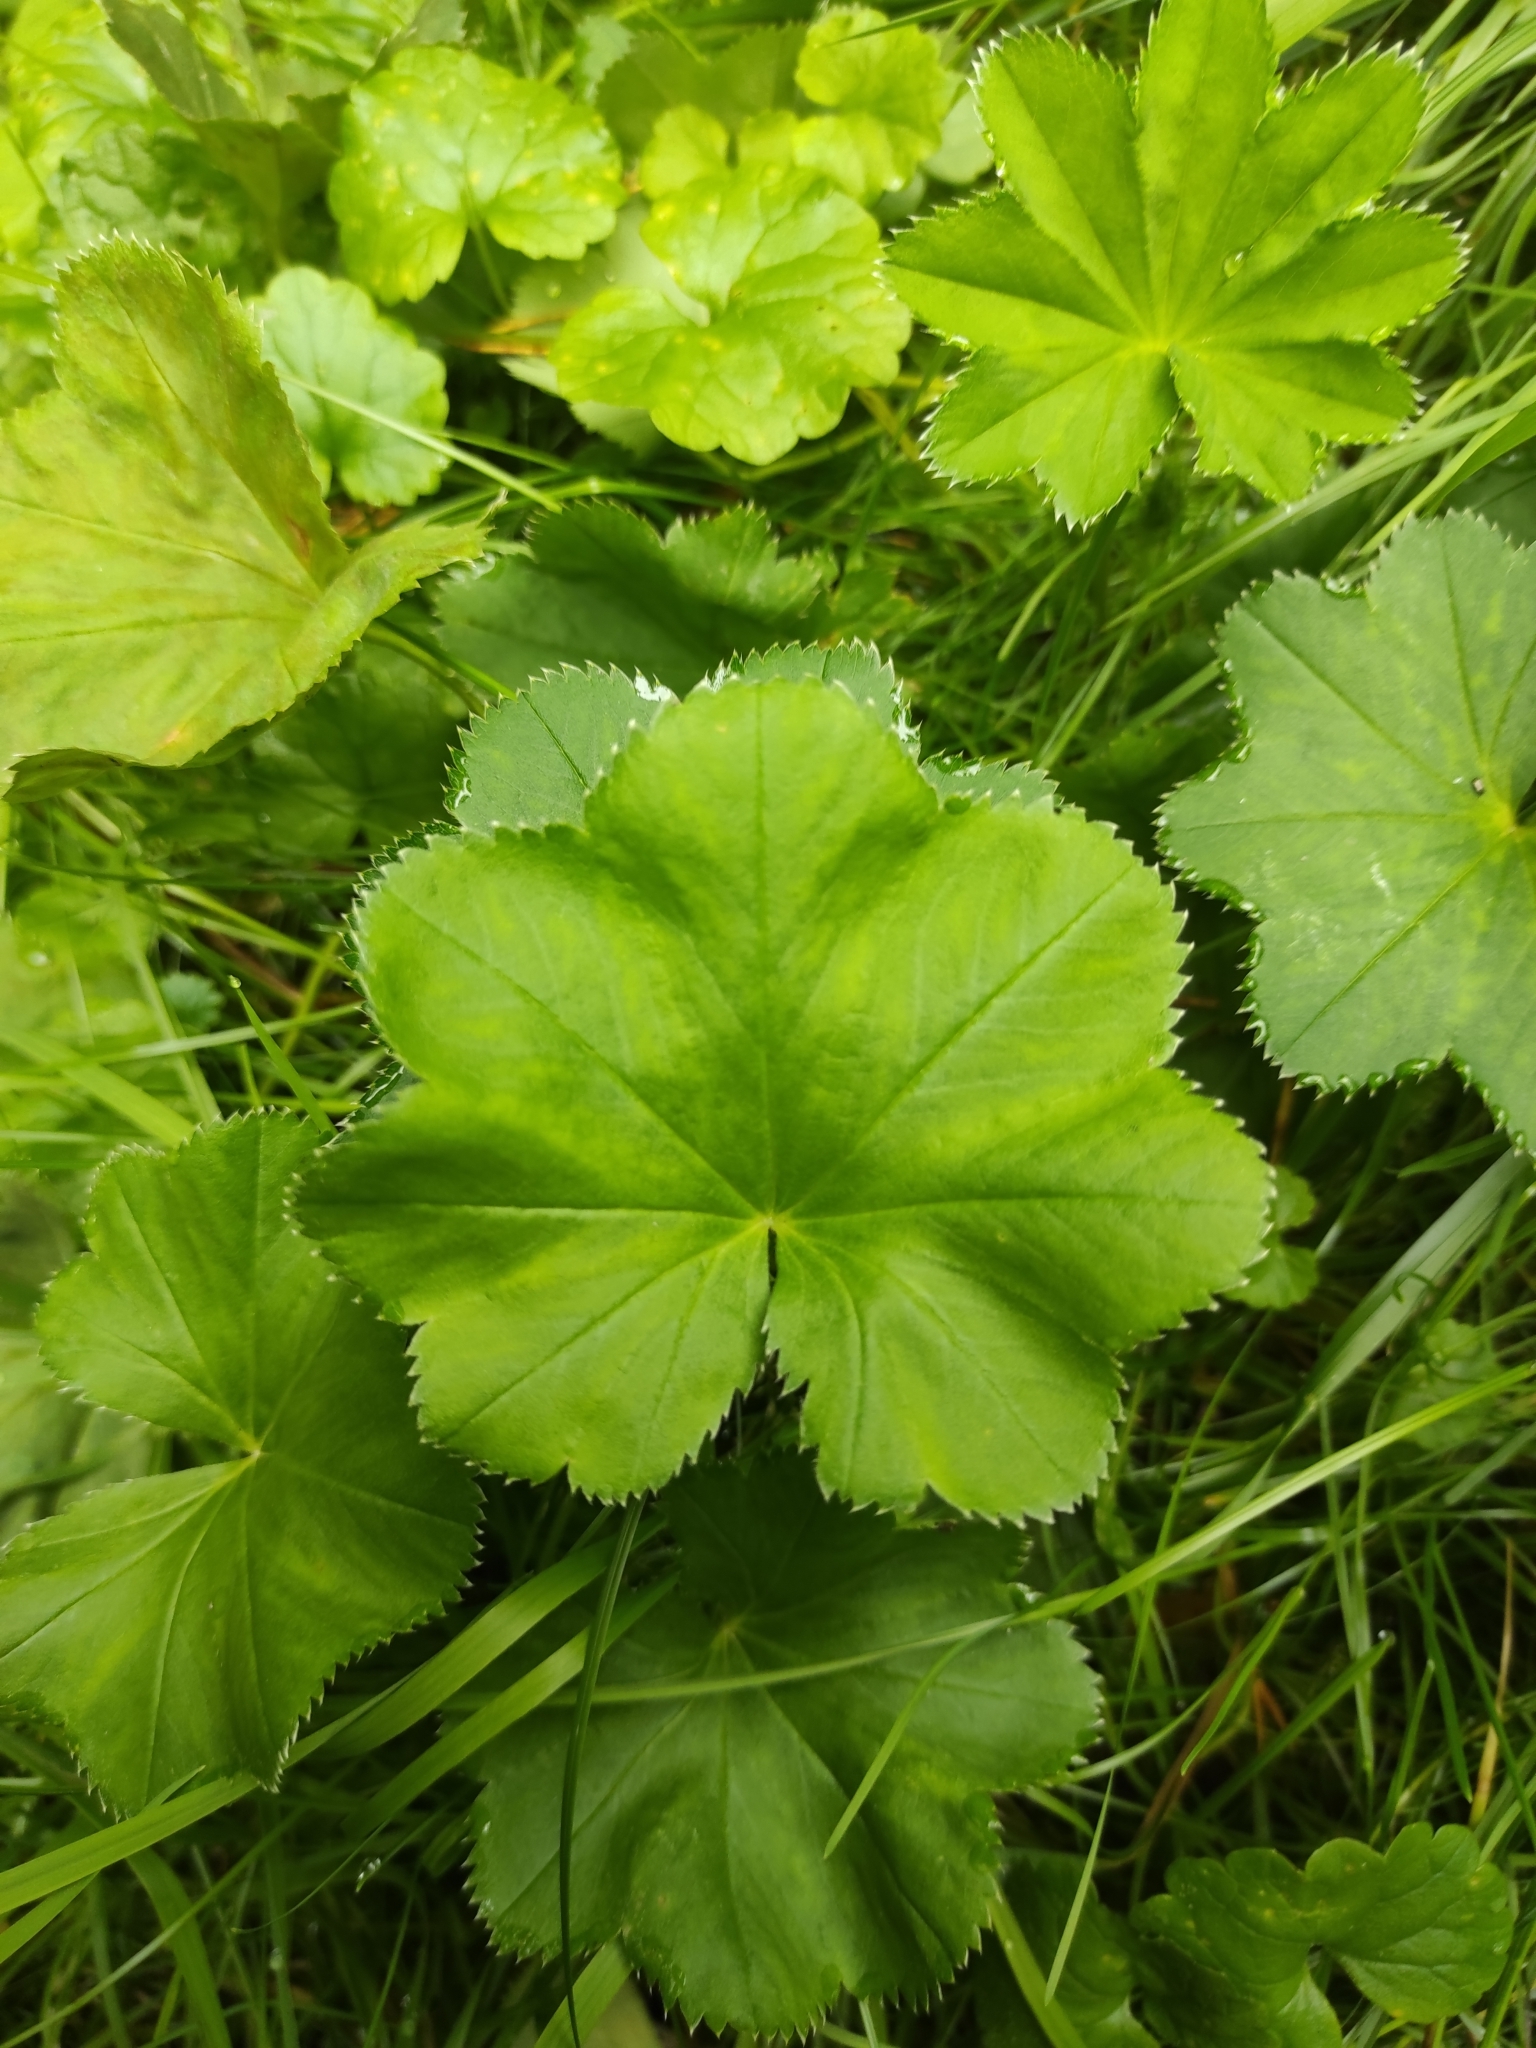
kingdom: Plantae
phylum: Tracheophyta
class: Magnoliopsida
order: Rosales
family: Rosaceae
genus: Alchemilla
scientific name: Alchemilla rhiphaea
